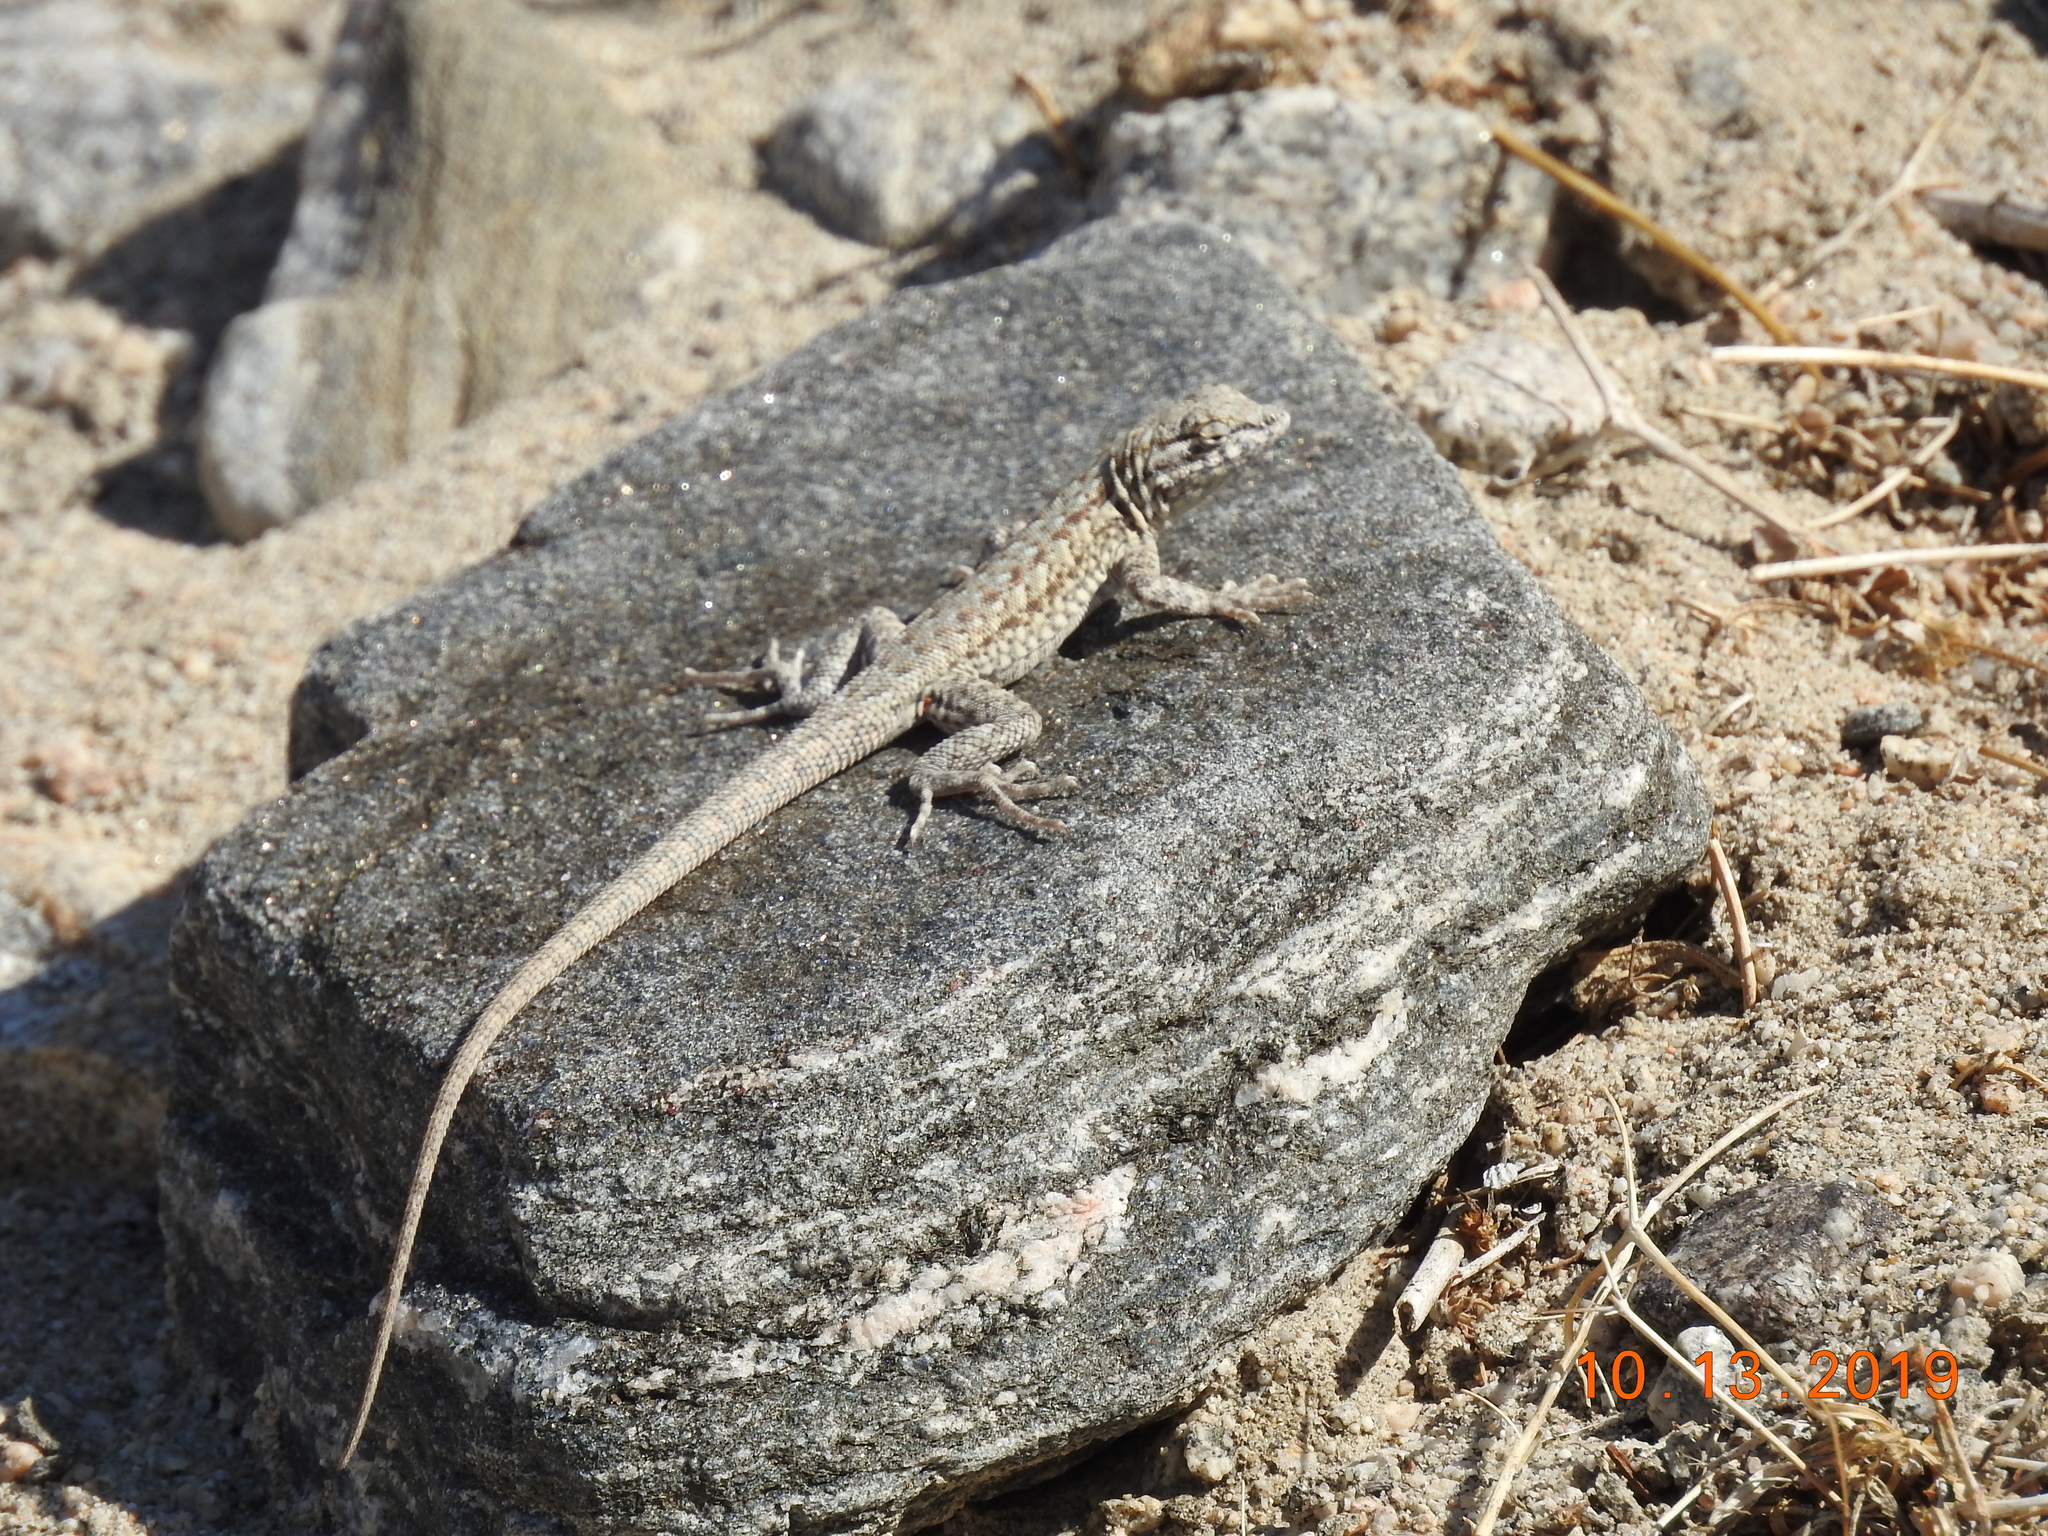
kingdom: Animalia
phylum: Chordata
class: Squamata
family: Phrynosomatidae
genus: Uta
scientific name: Uta stansburiana
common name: Side-blotched lizard
